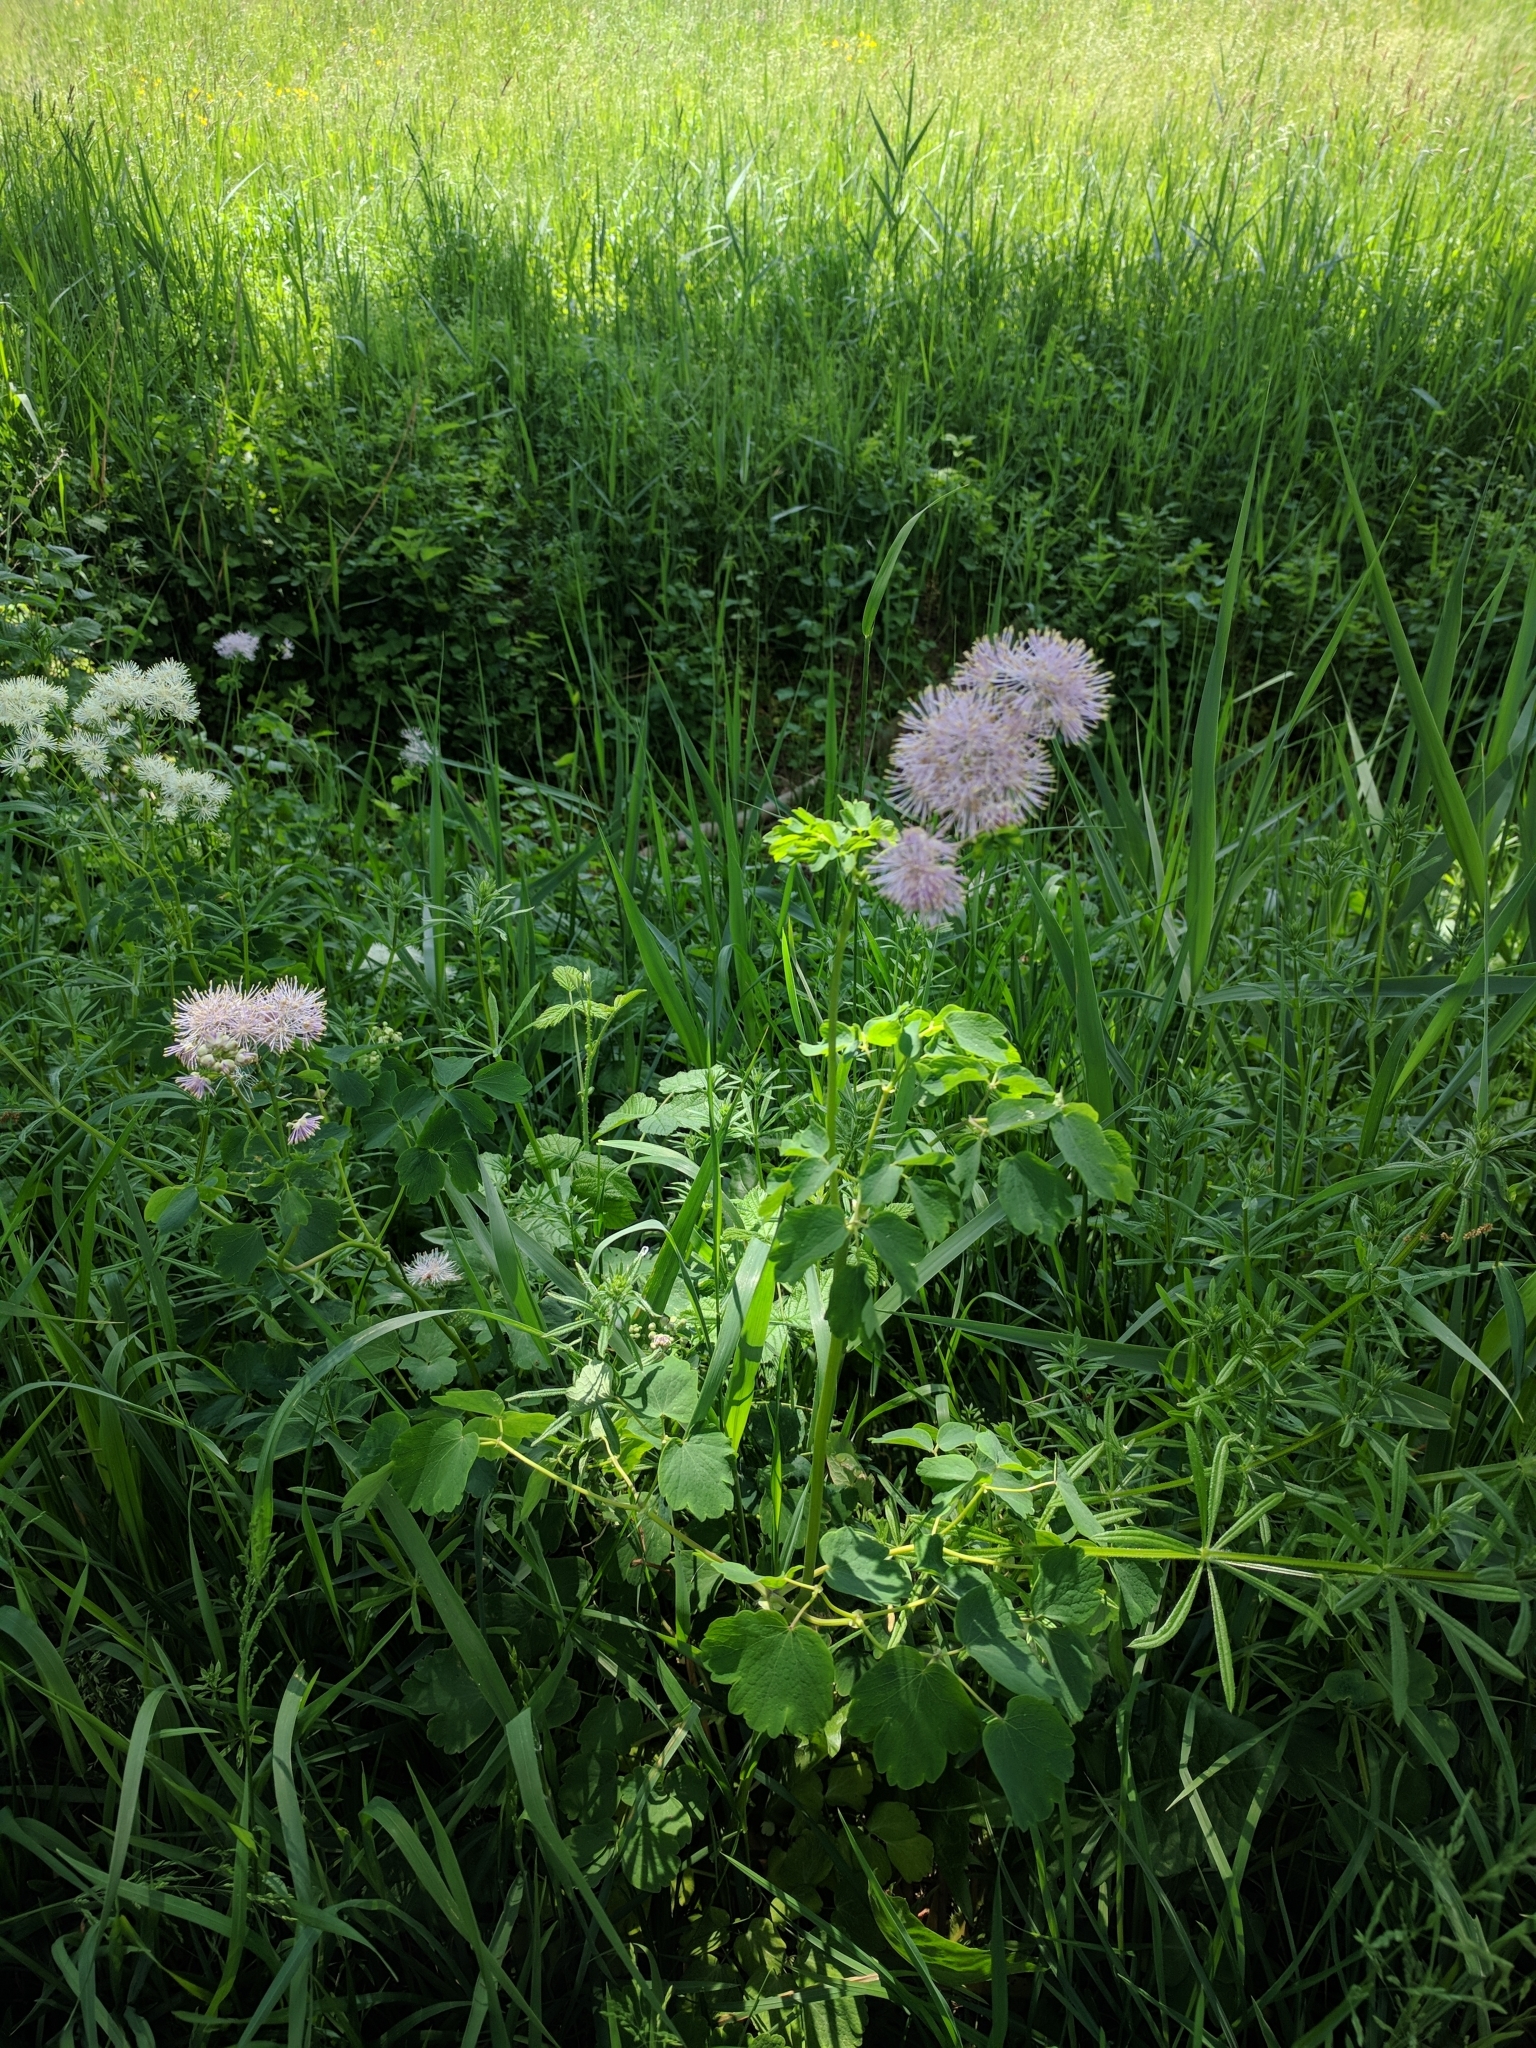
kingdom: Plantae
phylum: Tracheophyta
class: Magnoliopsida
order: Ranunculales
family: Ranunculaceae
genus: Thalictrum
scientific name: Thalictrum aquilegiifolium
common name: French meadow-rue
